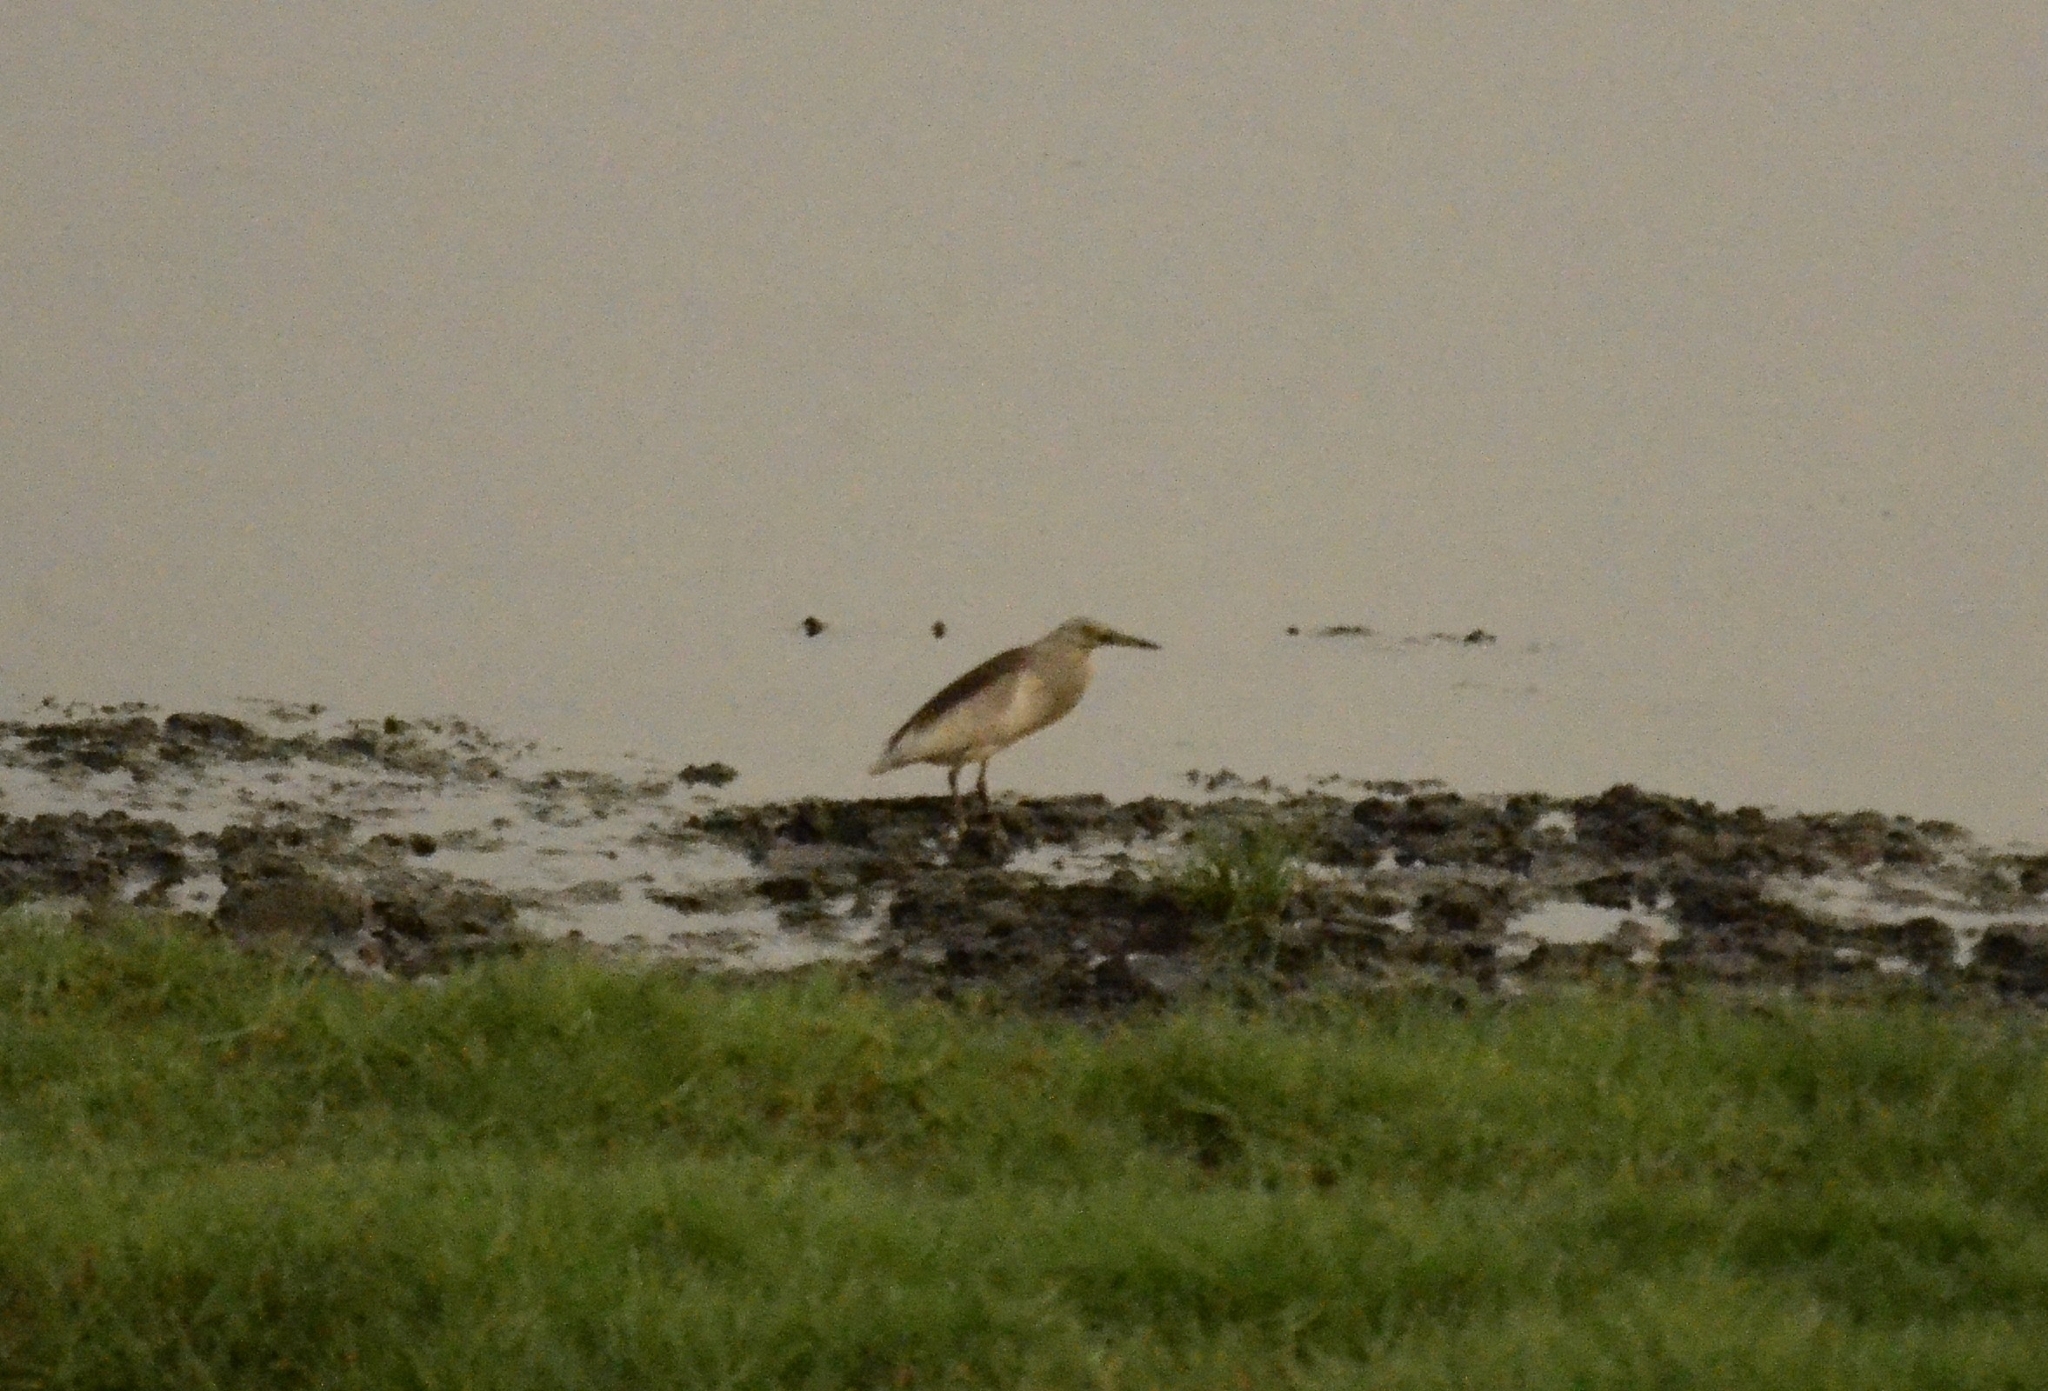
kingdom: Animalia
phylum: Chordata
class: Aves
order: Pelecaniformes
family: Ardeidae
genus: Ardeola
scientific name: Ardeola grayii
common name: Indian pond heron
